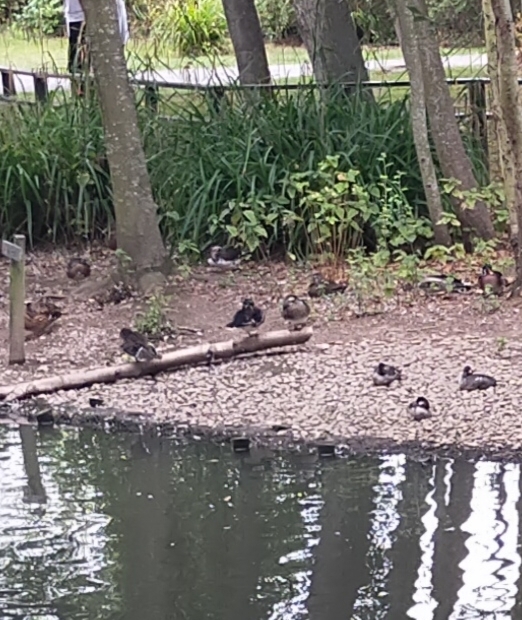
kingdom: Animalia
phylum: Chordata
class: Aves
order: Anseriformes
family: Anatidae
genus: Aix
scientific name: Aix sponsa
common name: Wood duck
